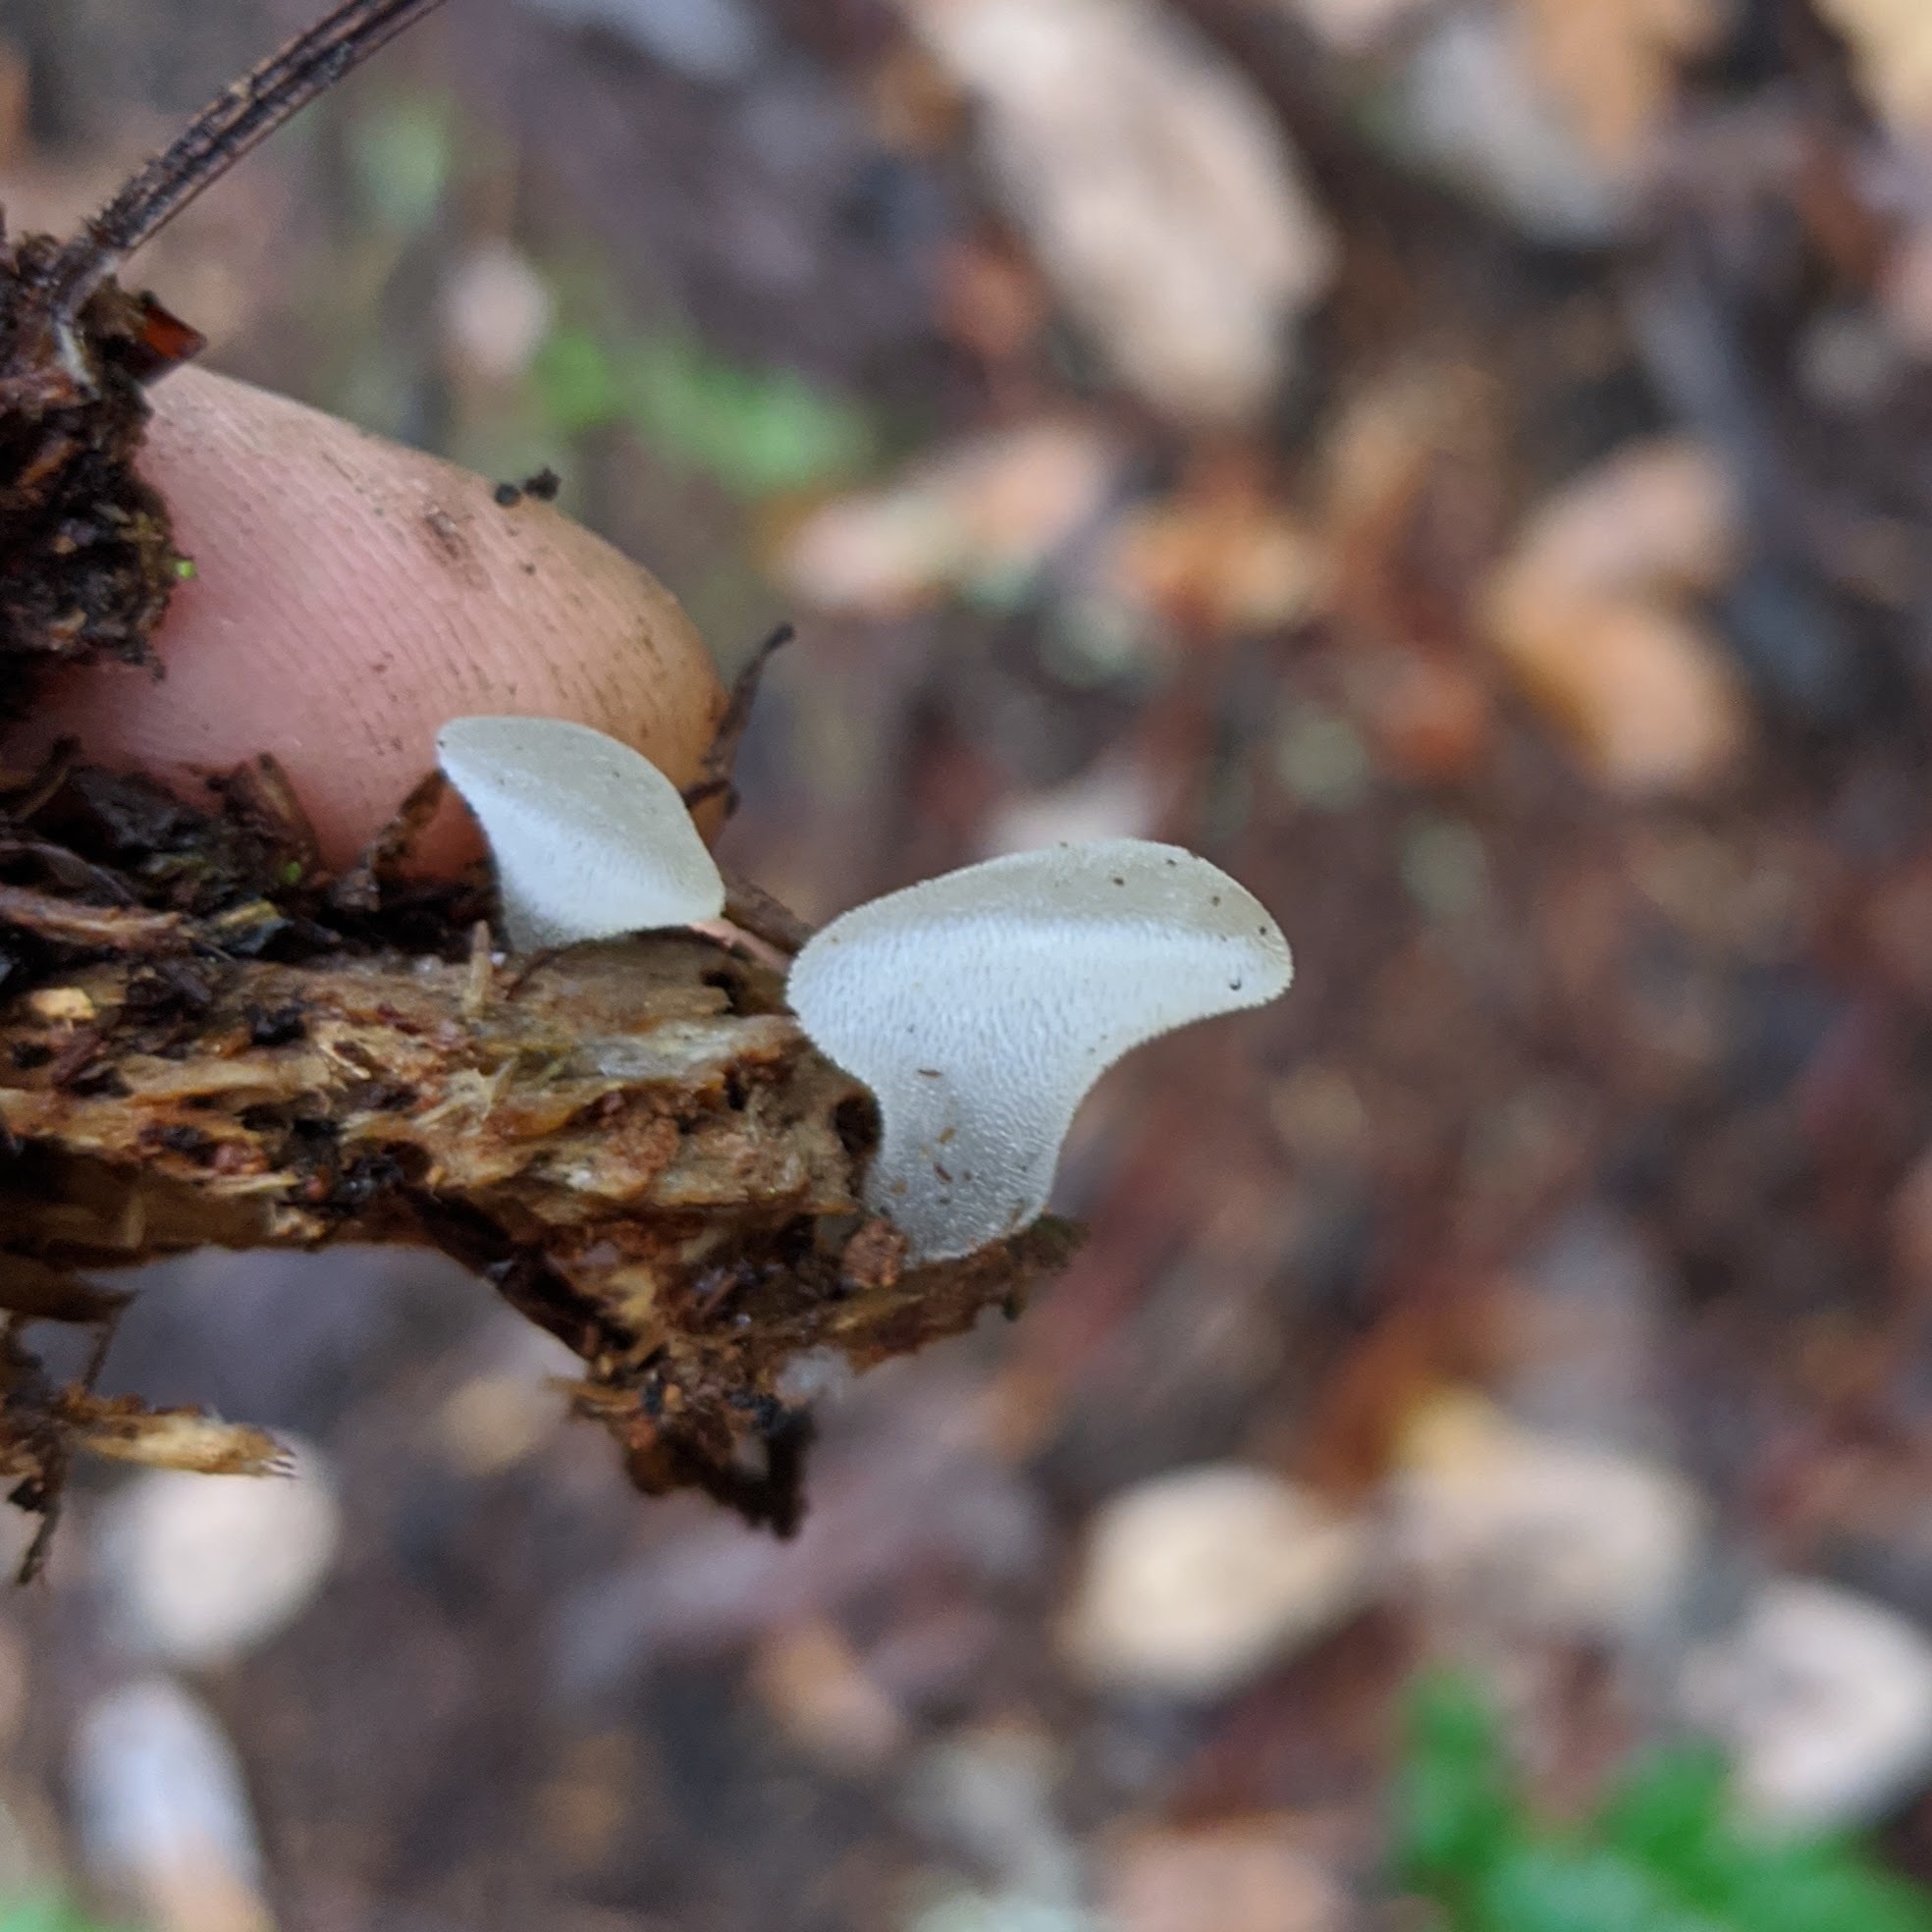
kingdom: Fungi
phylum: Basidiomycota
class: Agaricomycetes
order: Auriculariales
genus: Pseudohydnum
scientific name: Pseudohydnum gelatinosum
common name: Jelly tongue
